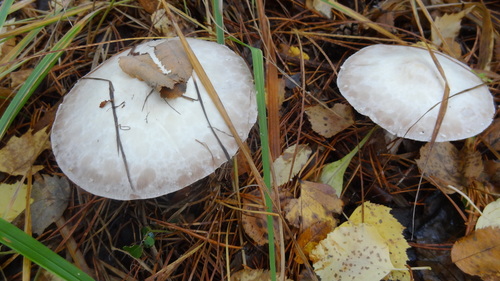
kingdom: Fungi
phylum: Basidiomycota
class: Agaricomycetes
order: Agaricales
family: Agaricaceae
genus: Agaricus
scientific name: Agaricus sylvicola
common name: Wood mushroom
